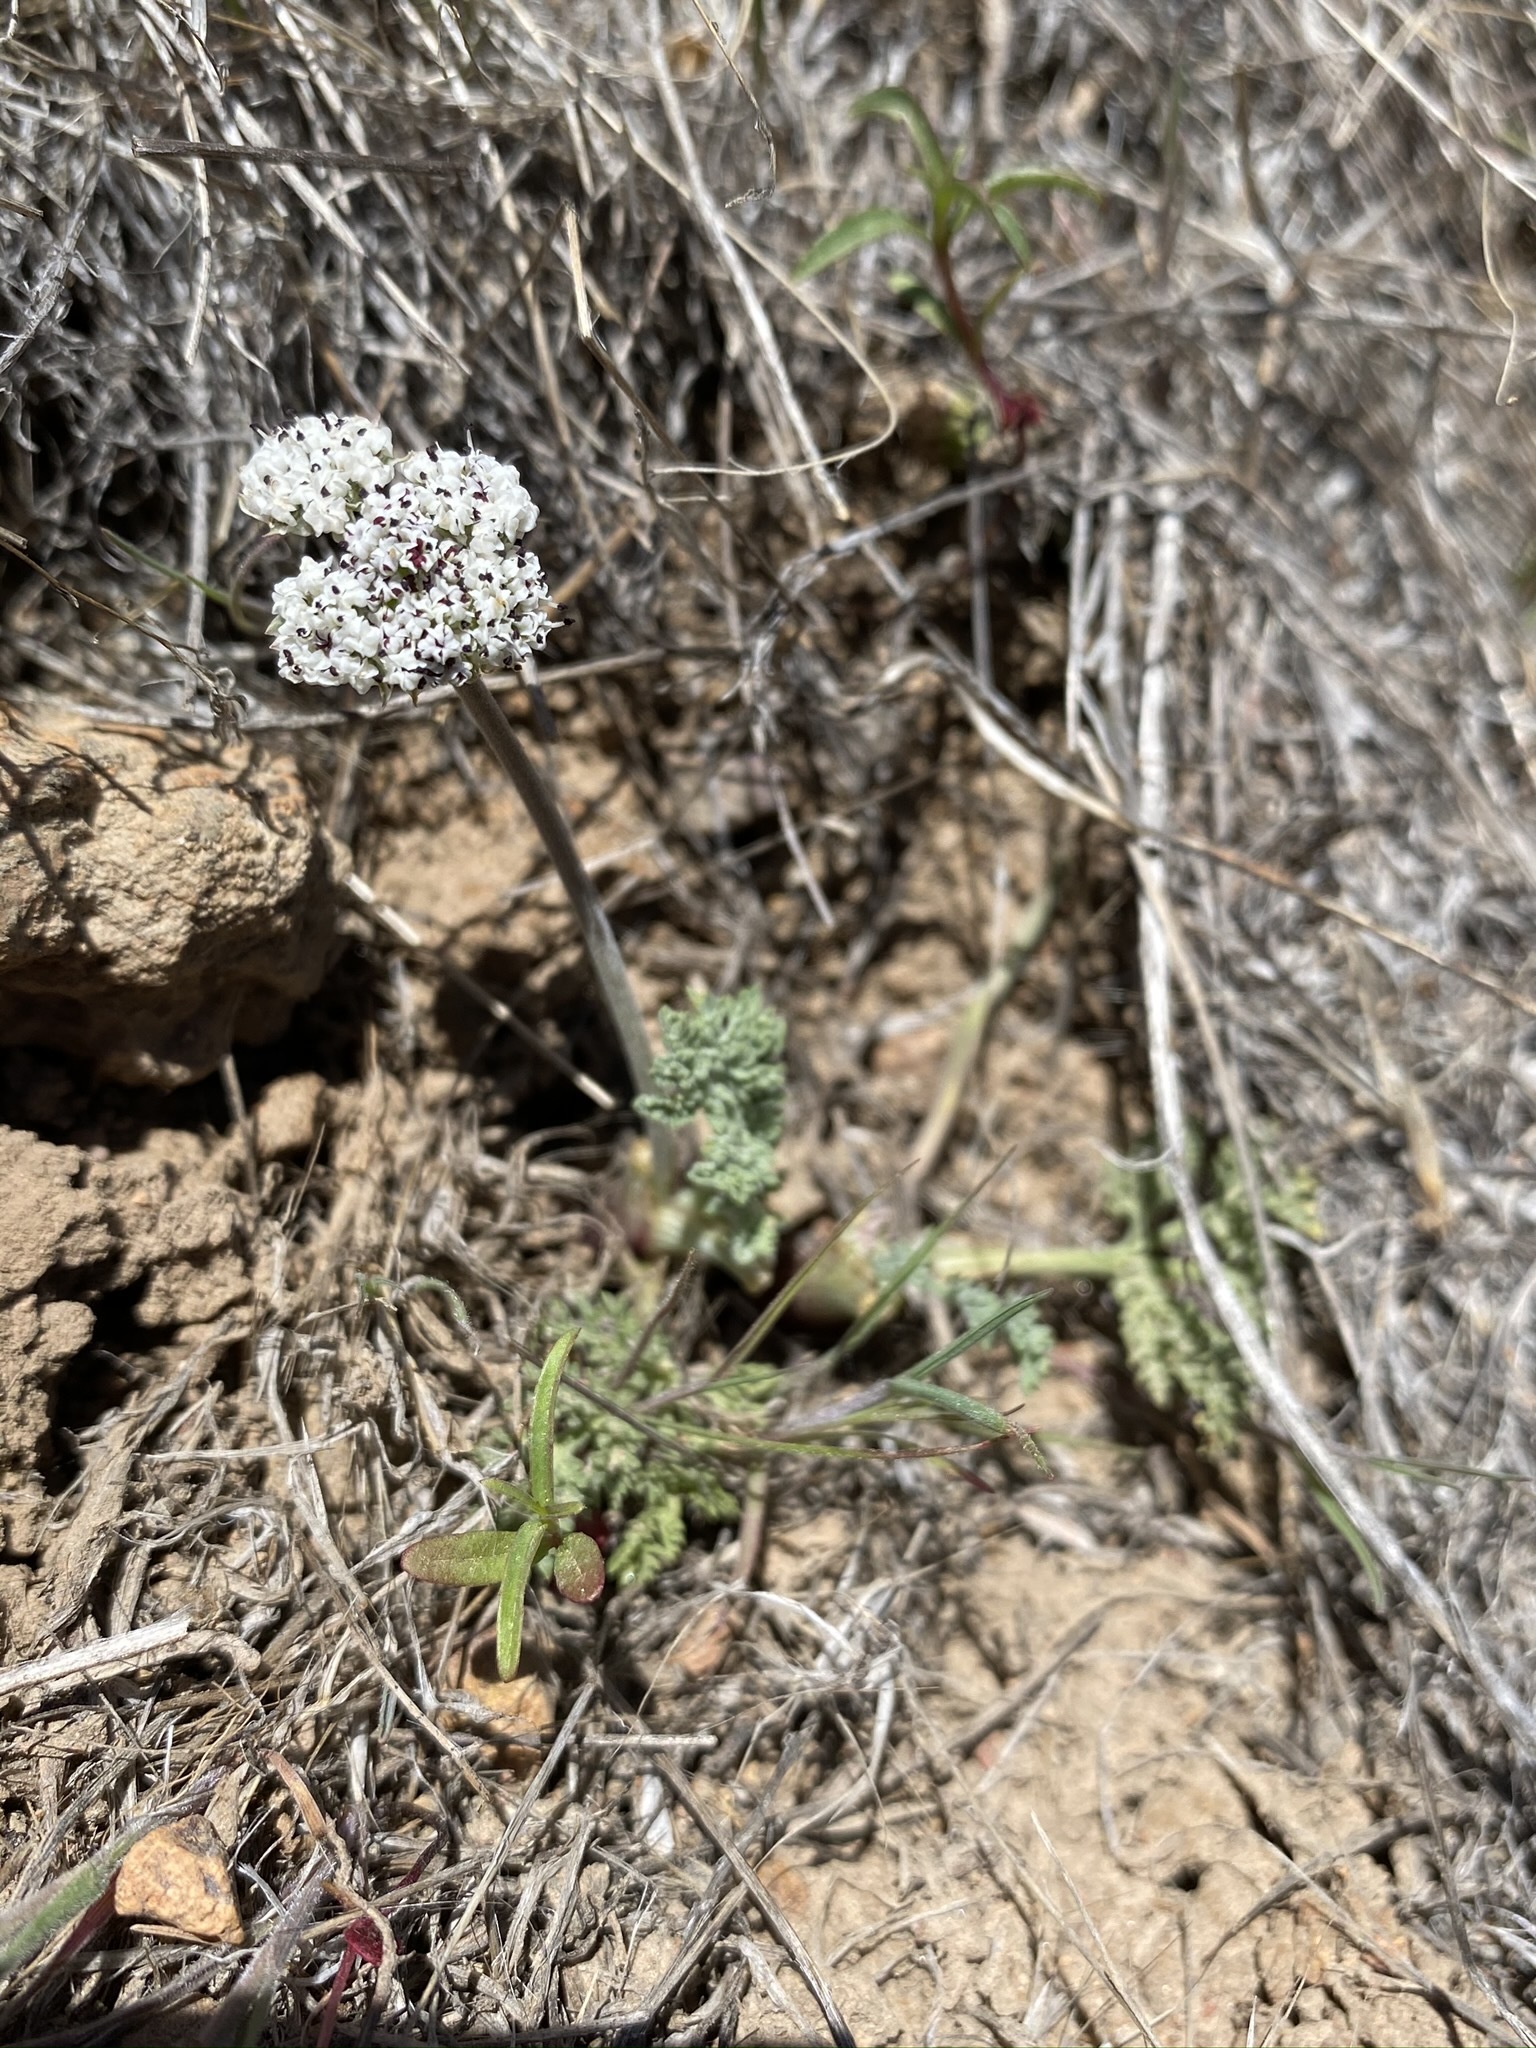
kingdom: Plantae
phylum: Tracheophyta
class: Magnoliopsida
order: Apiales
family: Apiaceae
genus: Lomatium
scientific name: Lomatium nevadense
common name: Nevada lomatium
